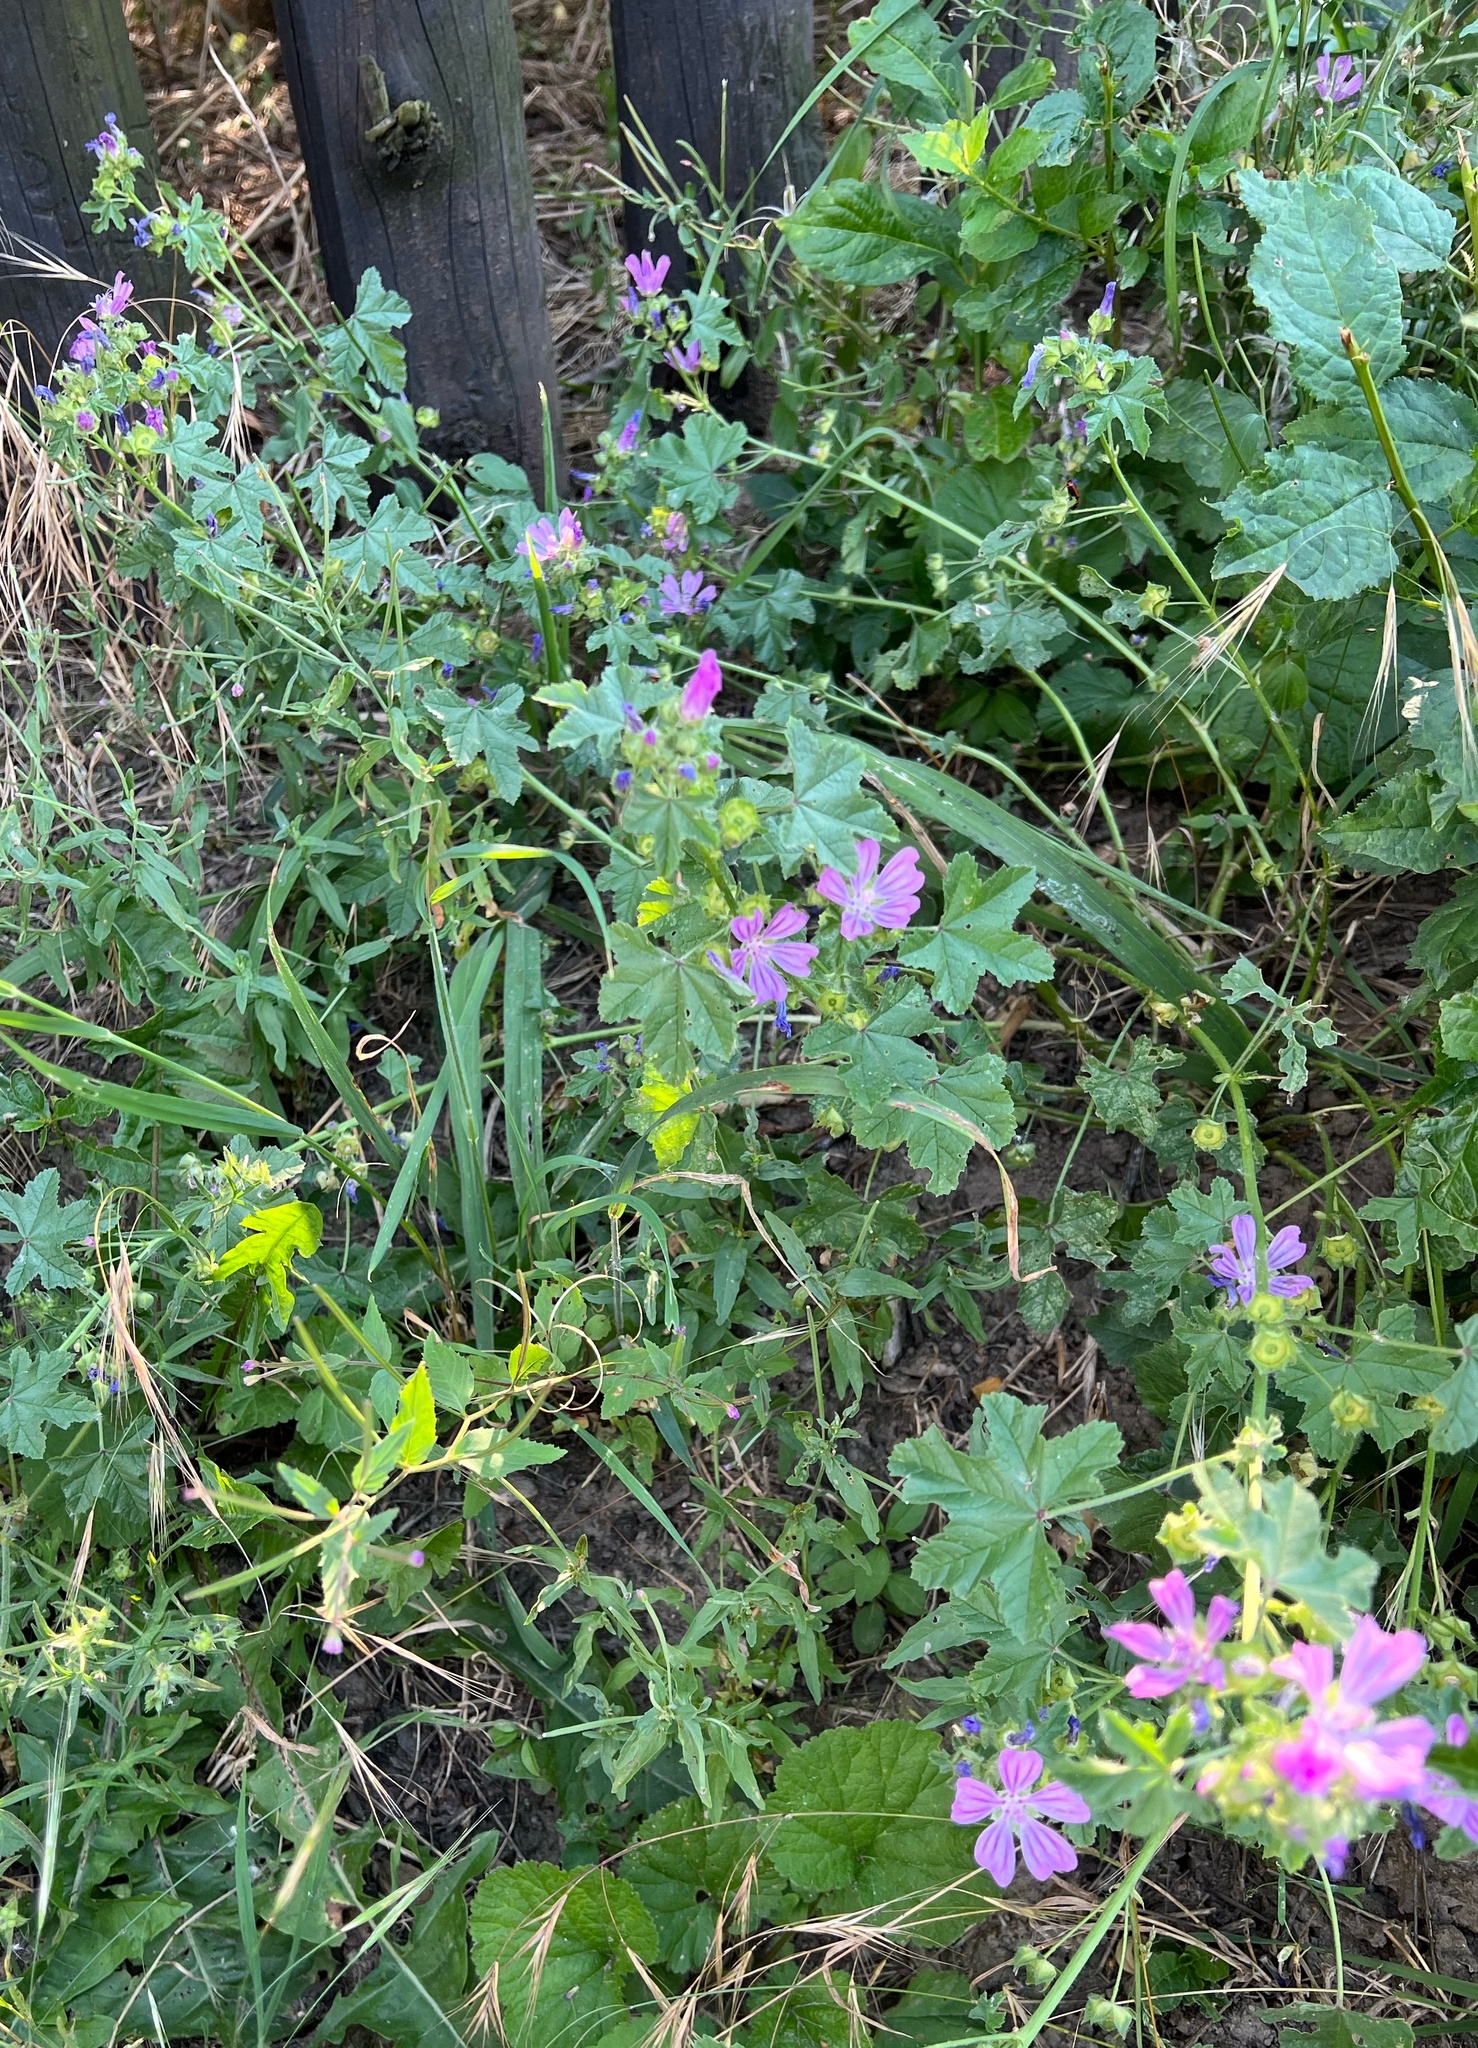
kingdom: Plantae
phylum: Tracheophyta
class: Magnoliopsida
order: Malvales
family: Malvaceae
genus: Malva
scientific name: Malva sylvestris
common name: Common mallow
